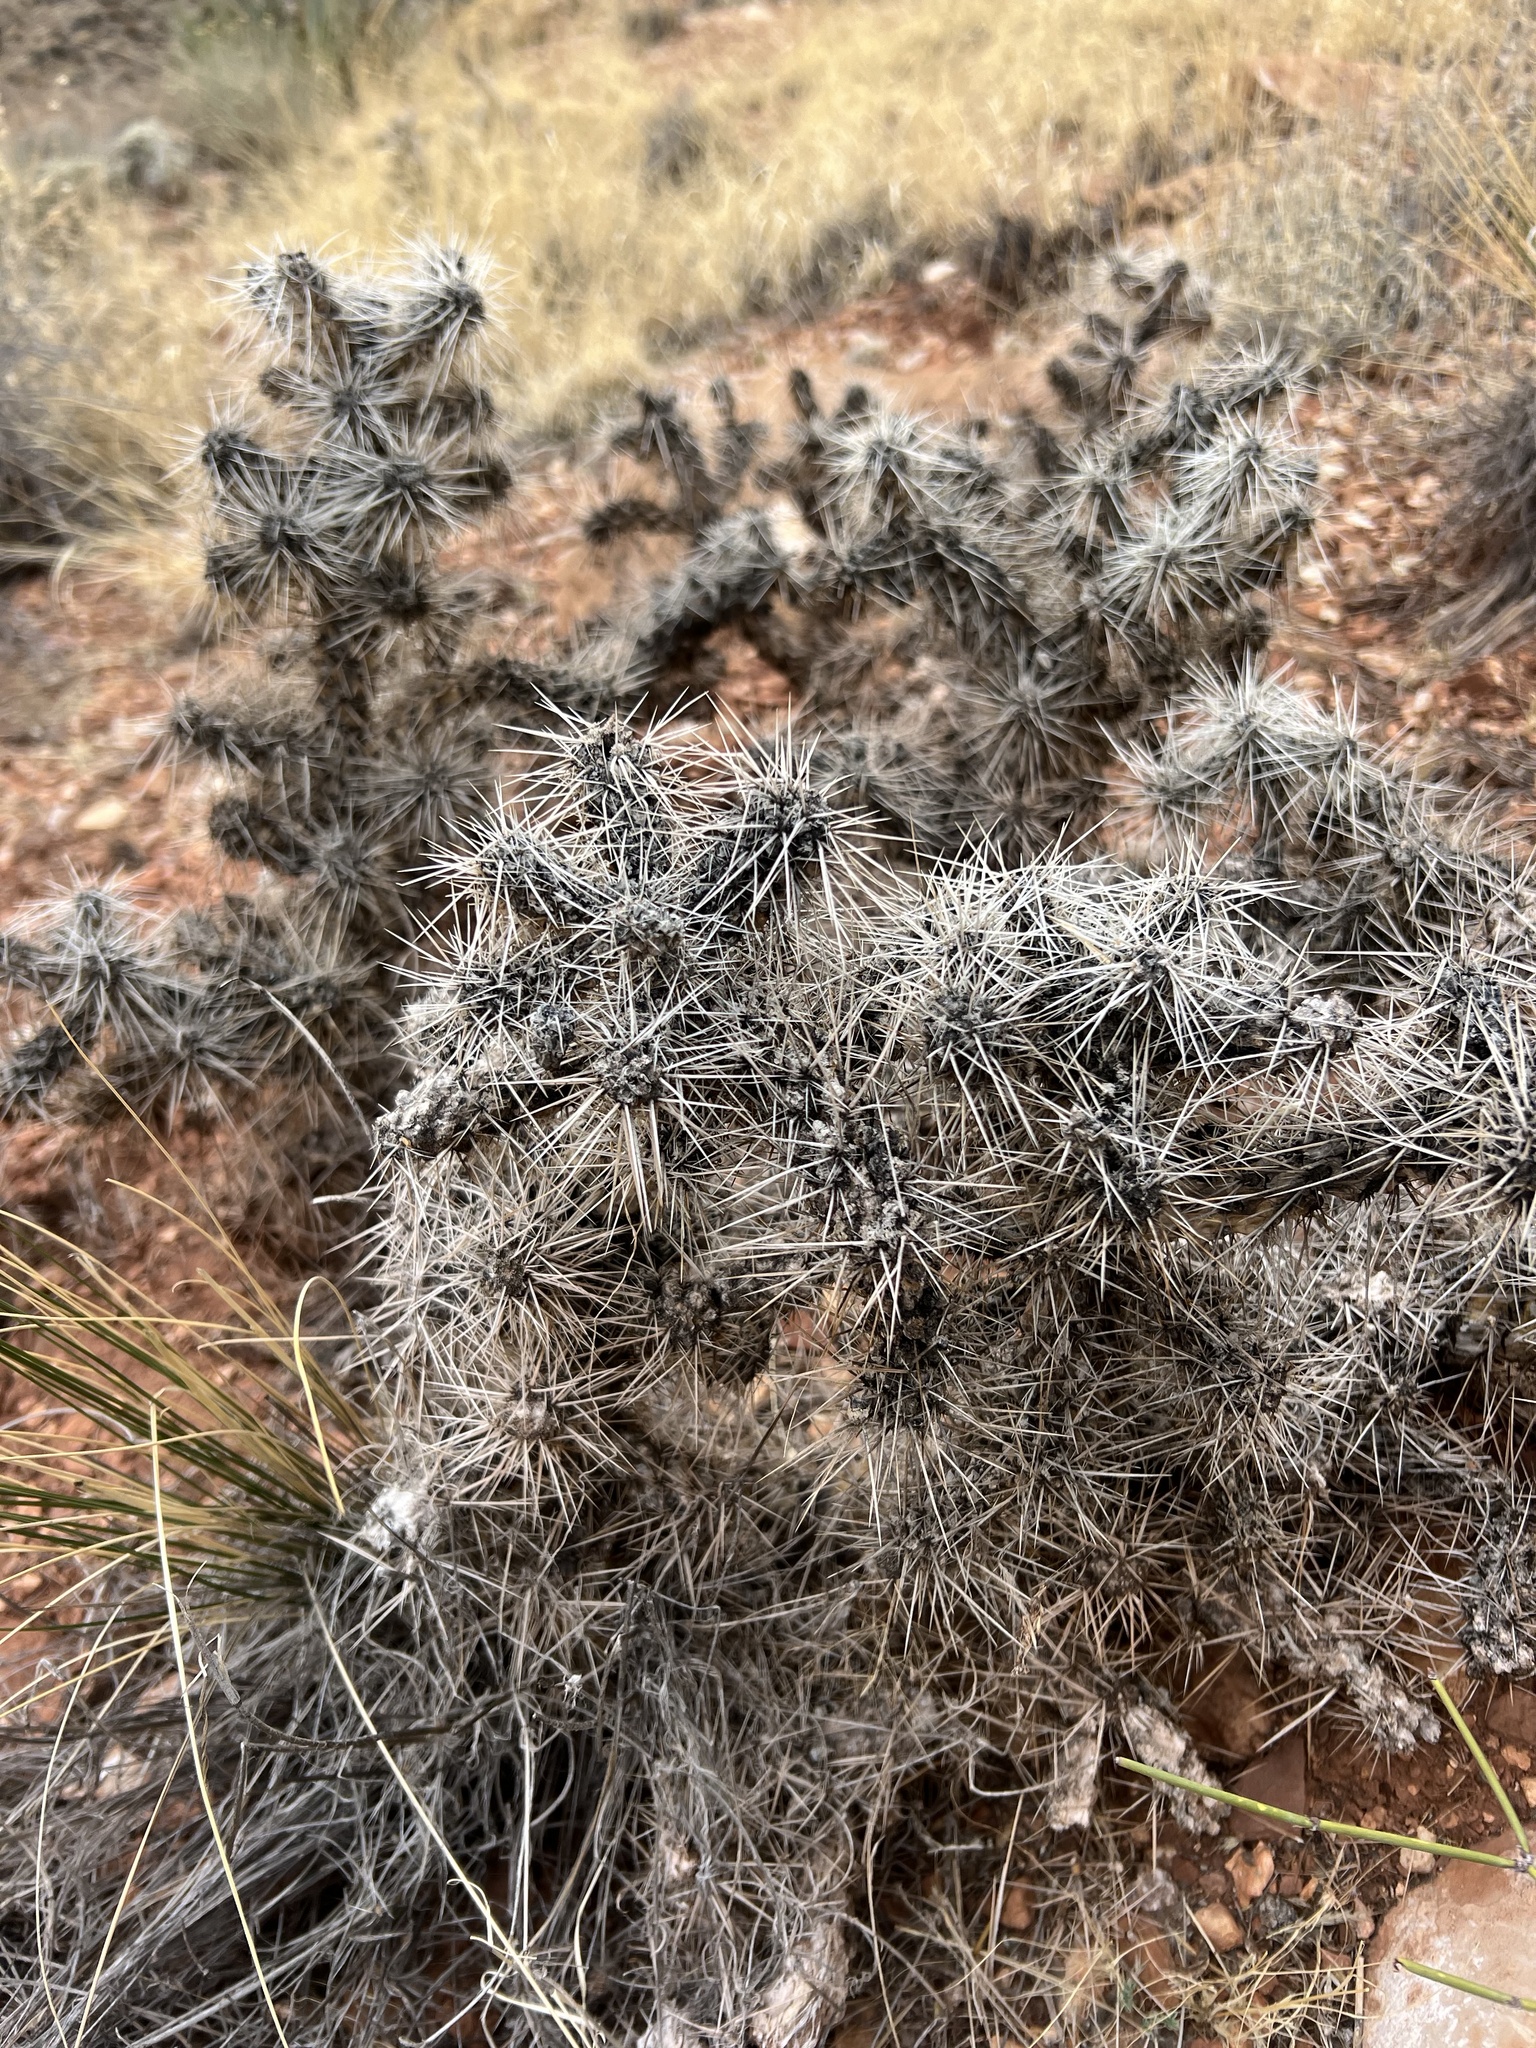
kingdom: Plantae
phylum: Tracheophyta
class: Magnoliopsida
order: Caryophyllales
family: Cactaceae
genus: Cylindropuntia
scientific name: Cylindropuntia whipplei
